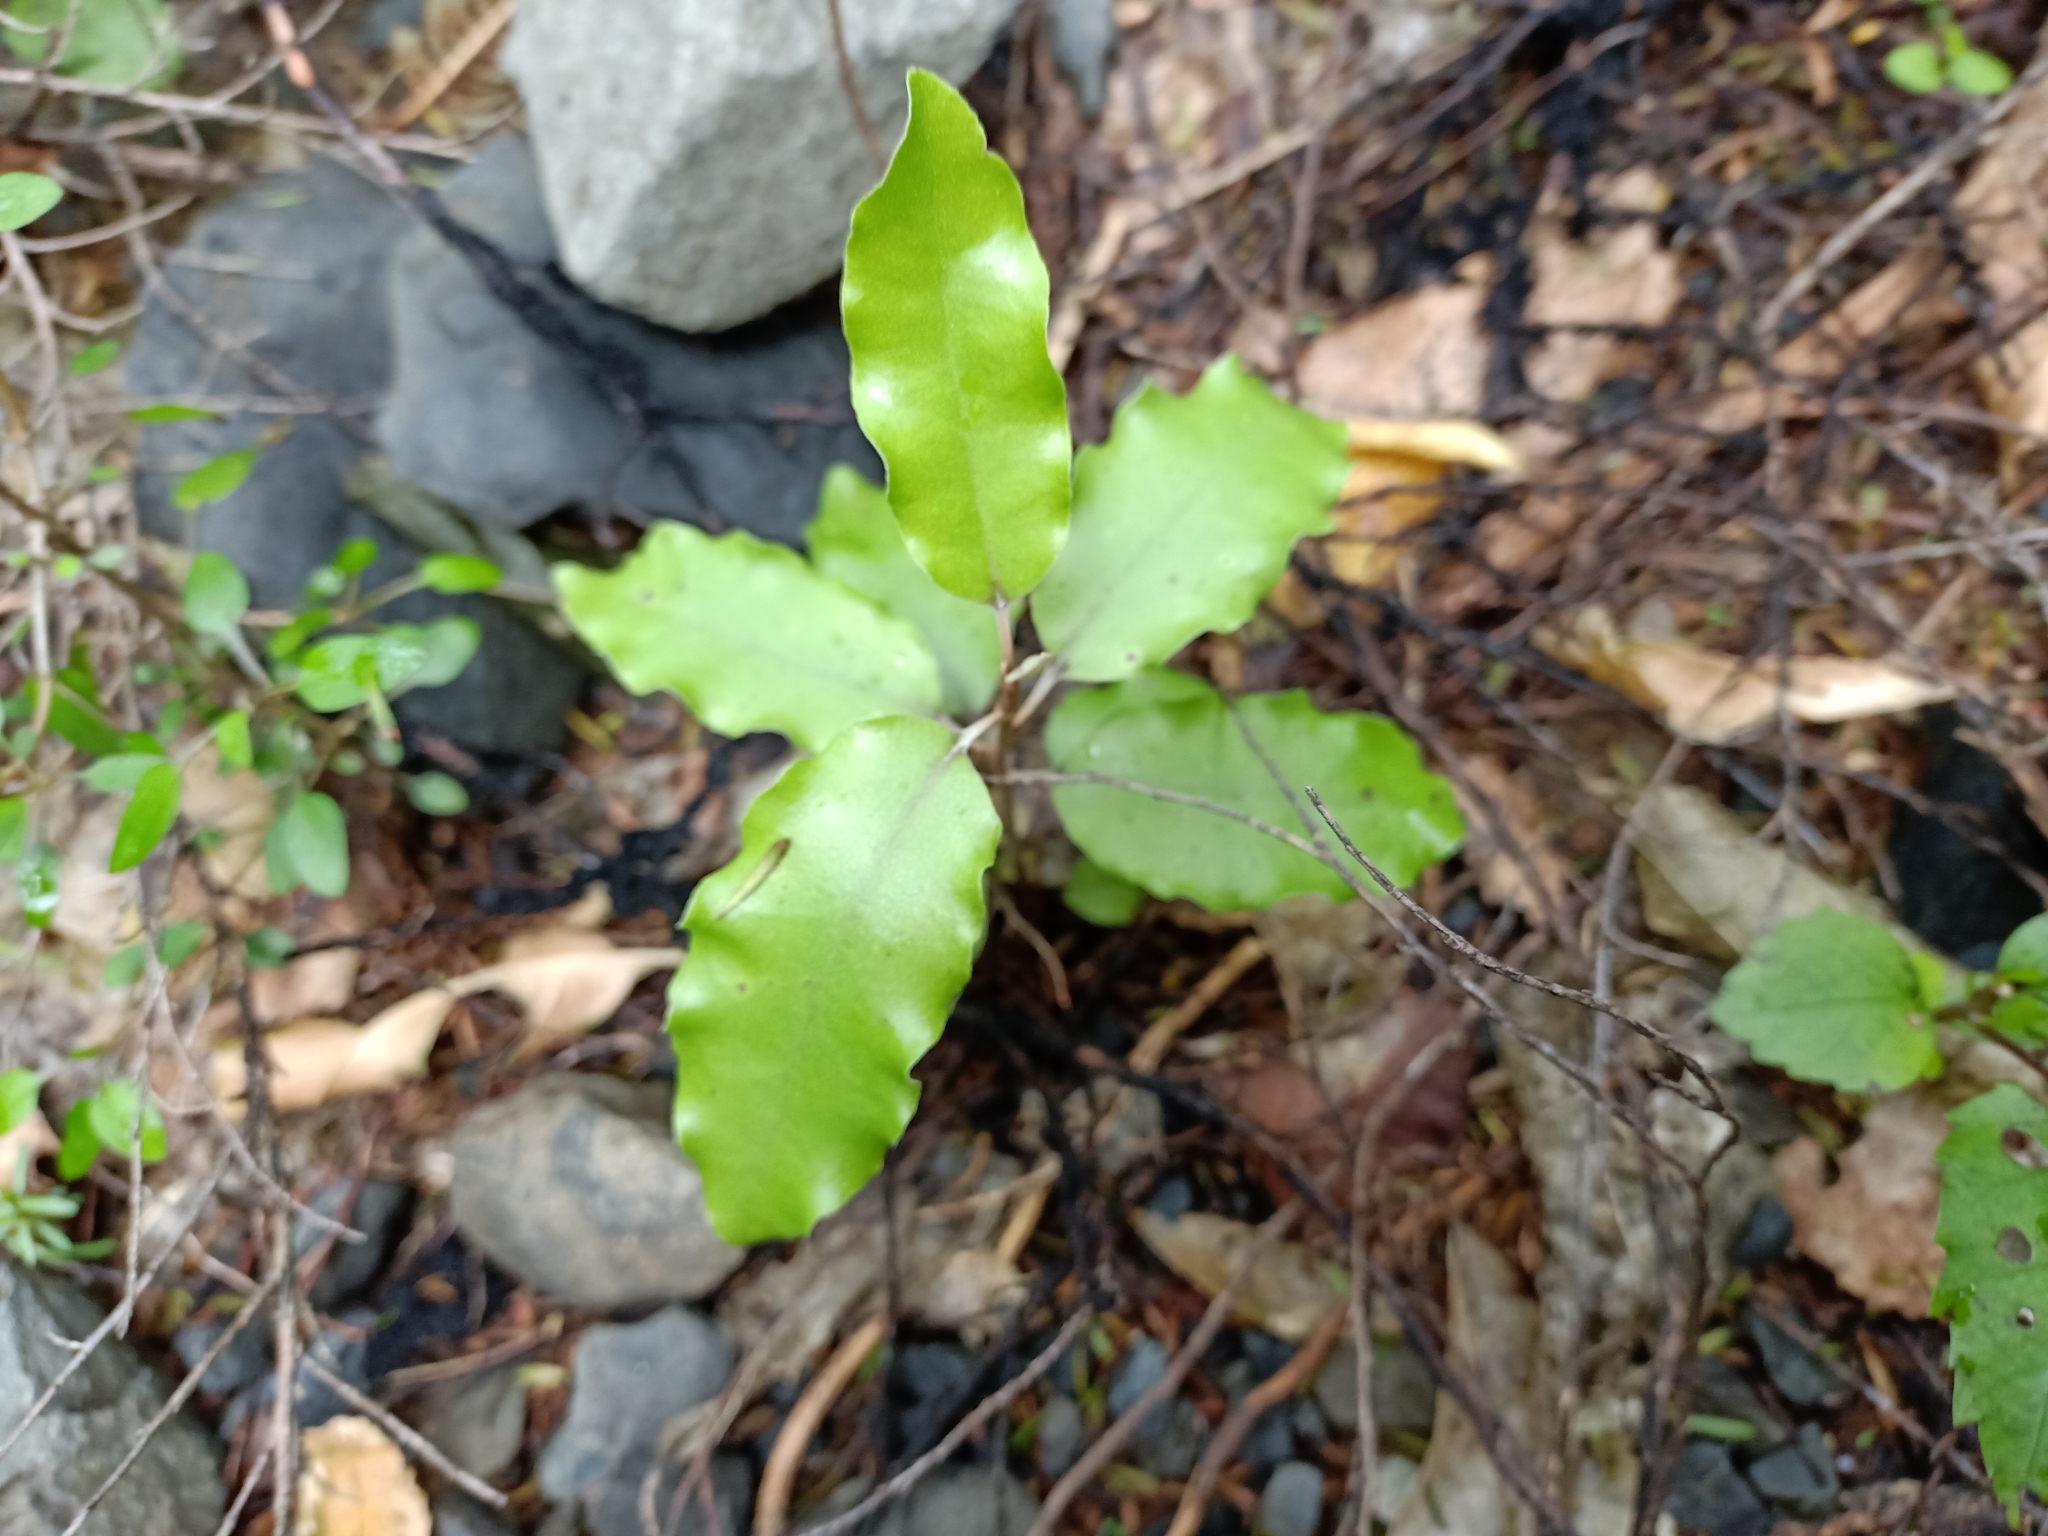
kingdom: Plantae
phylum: Tracheophyta
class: Magnoliopsida
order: Asterales
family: Asteraceae
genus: Olearia
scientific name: Olearia paniculata
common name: Akiraho
